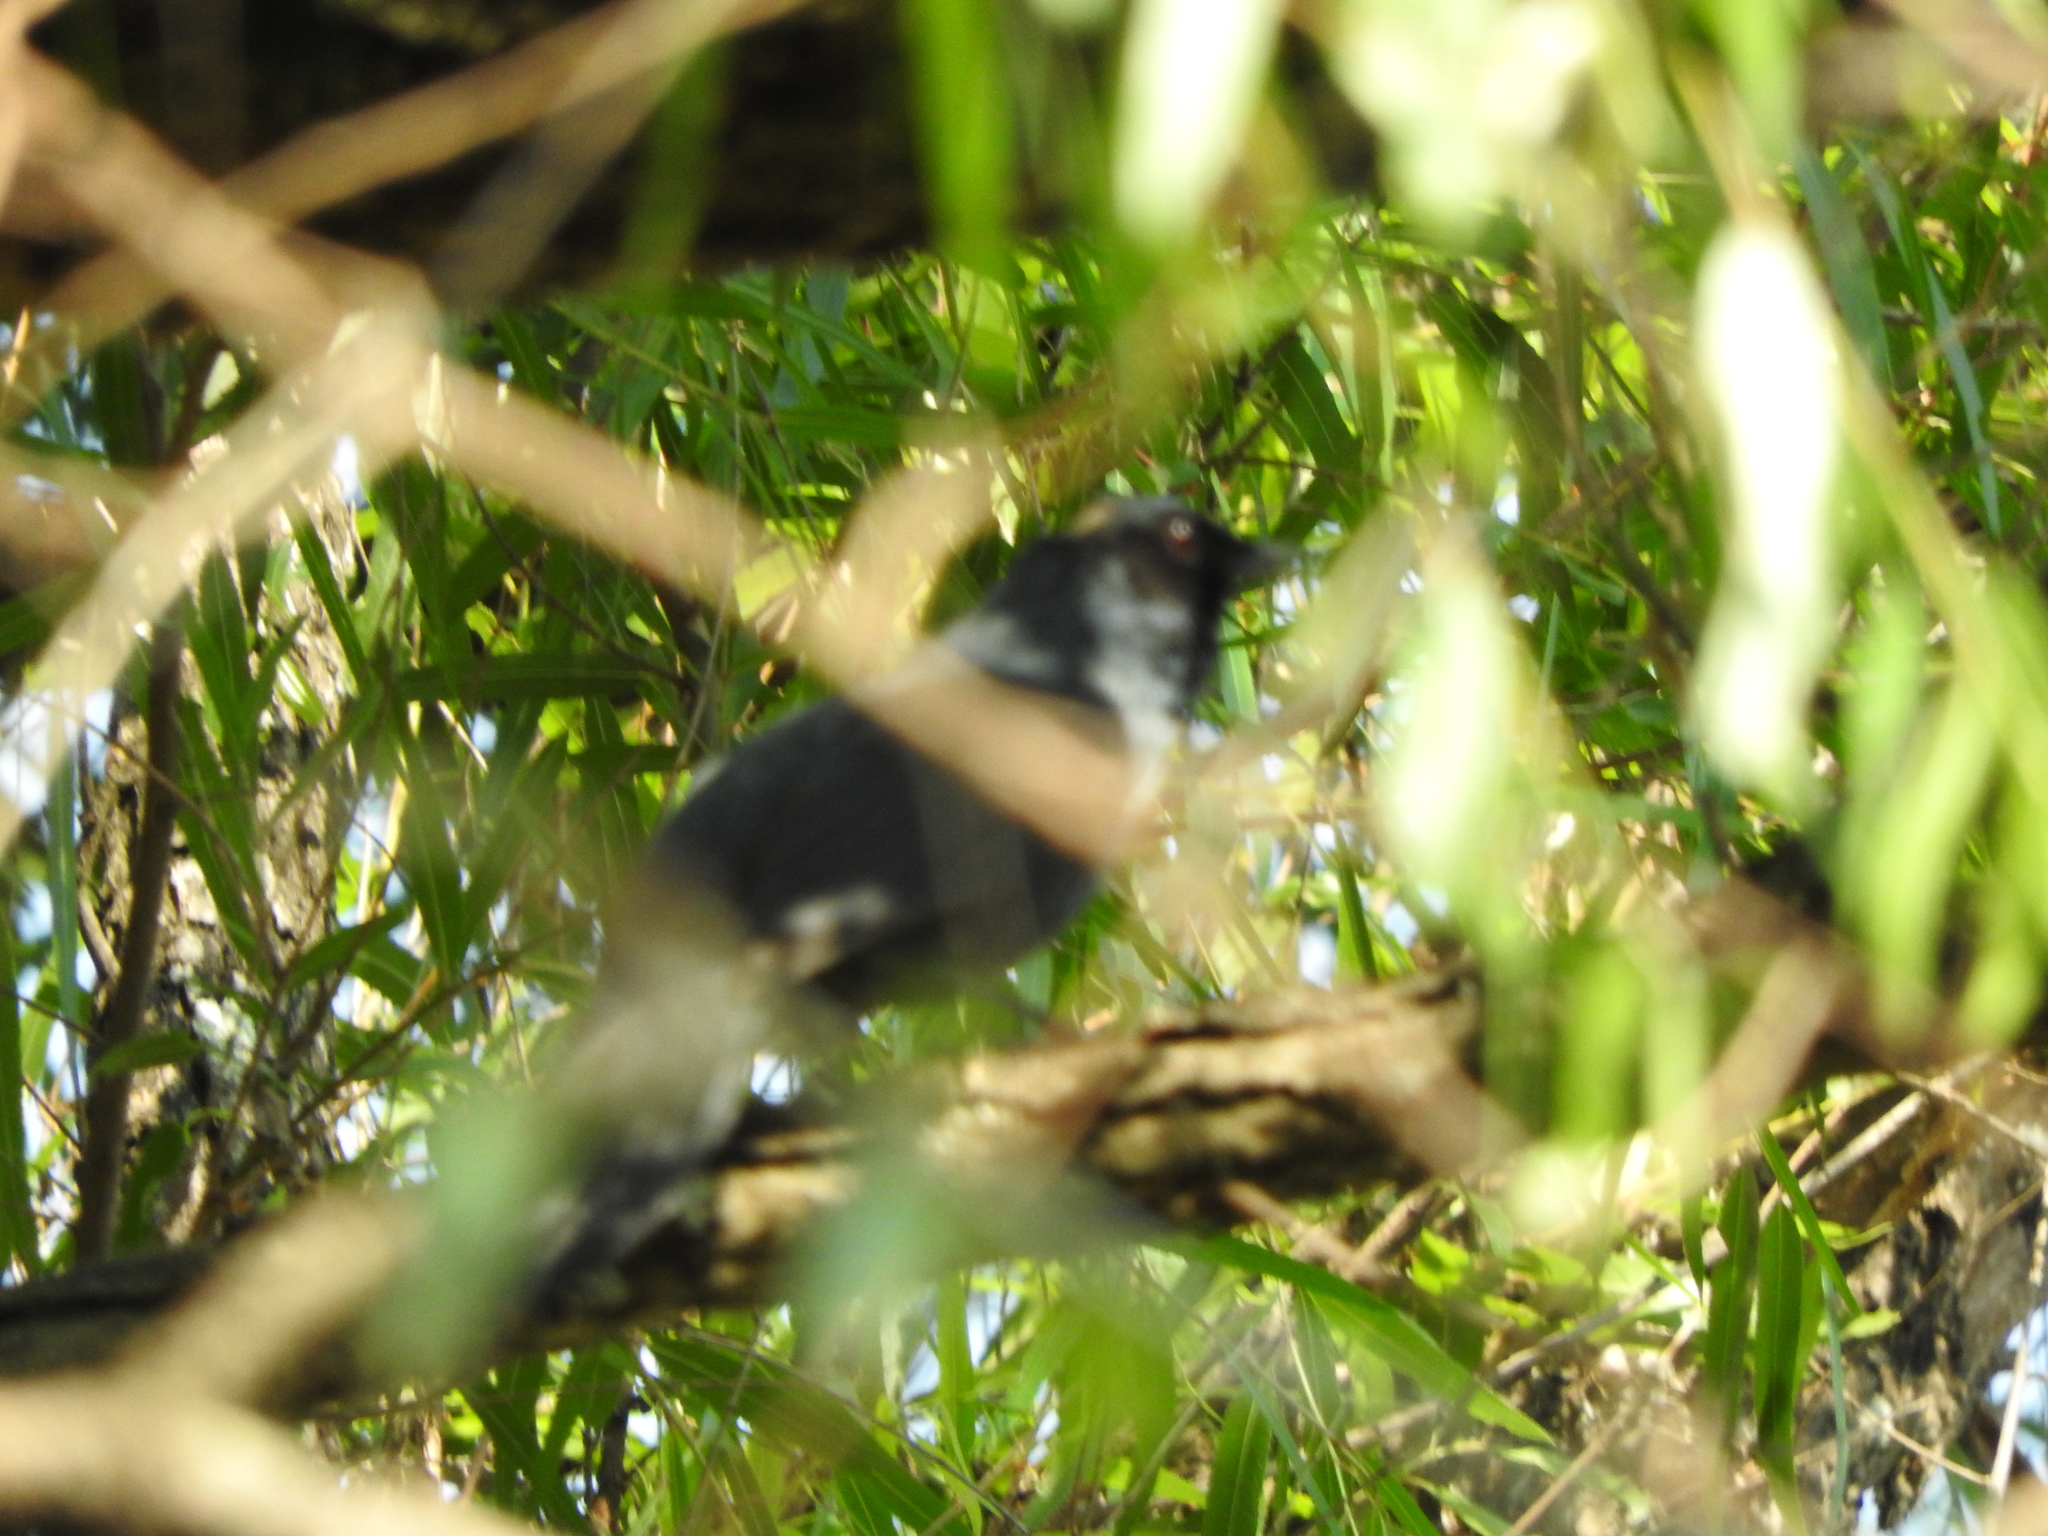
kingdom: Animalia
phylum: Chordata
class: Aves
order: Passeriformes
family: Mimidae
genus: Melanotis
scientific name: Melanotis caerulescens
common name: Blue mockingbird
